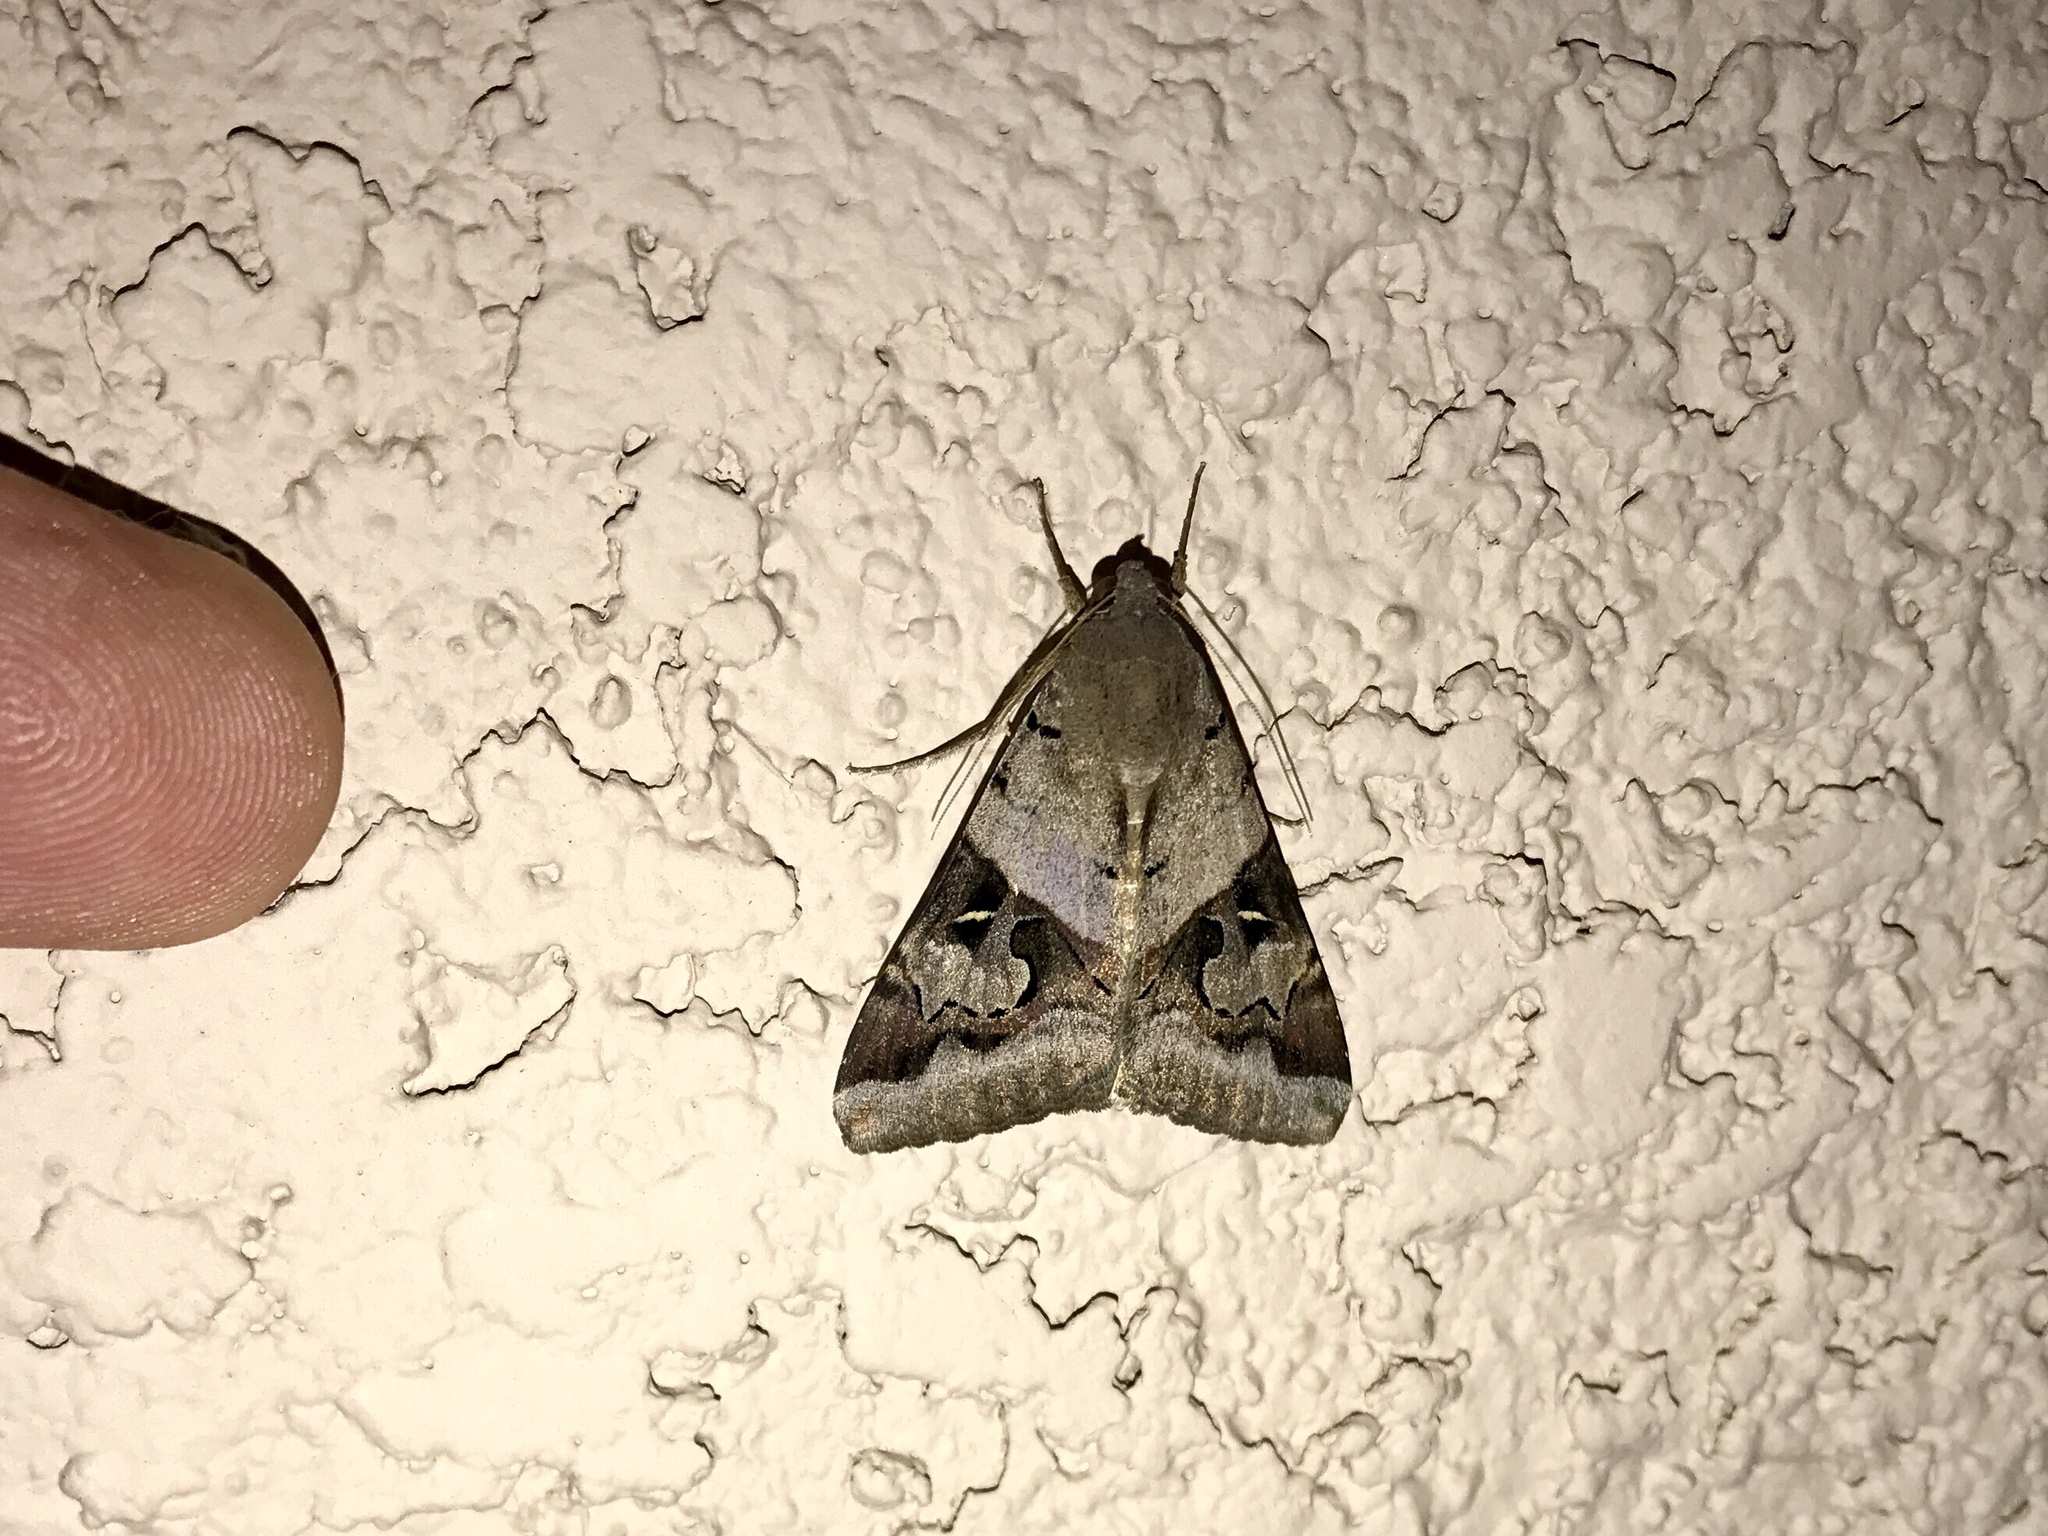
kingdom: Animalia
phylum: Arthropoda
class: Insecta
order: Lepidoptera
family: Erebidae
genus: Melipotis
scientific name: Melipotis indomita
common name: Moth
